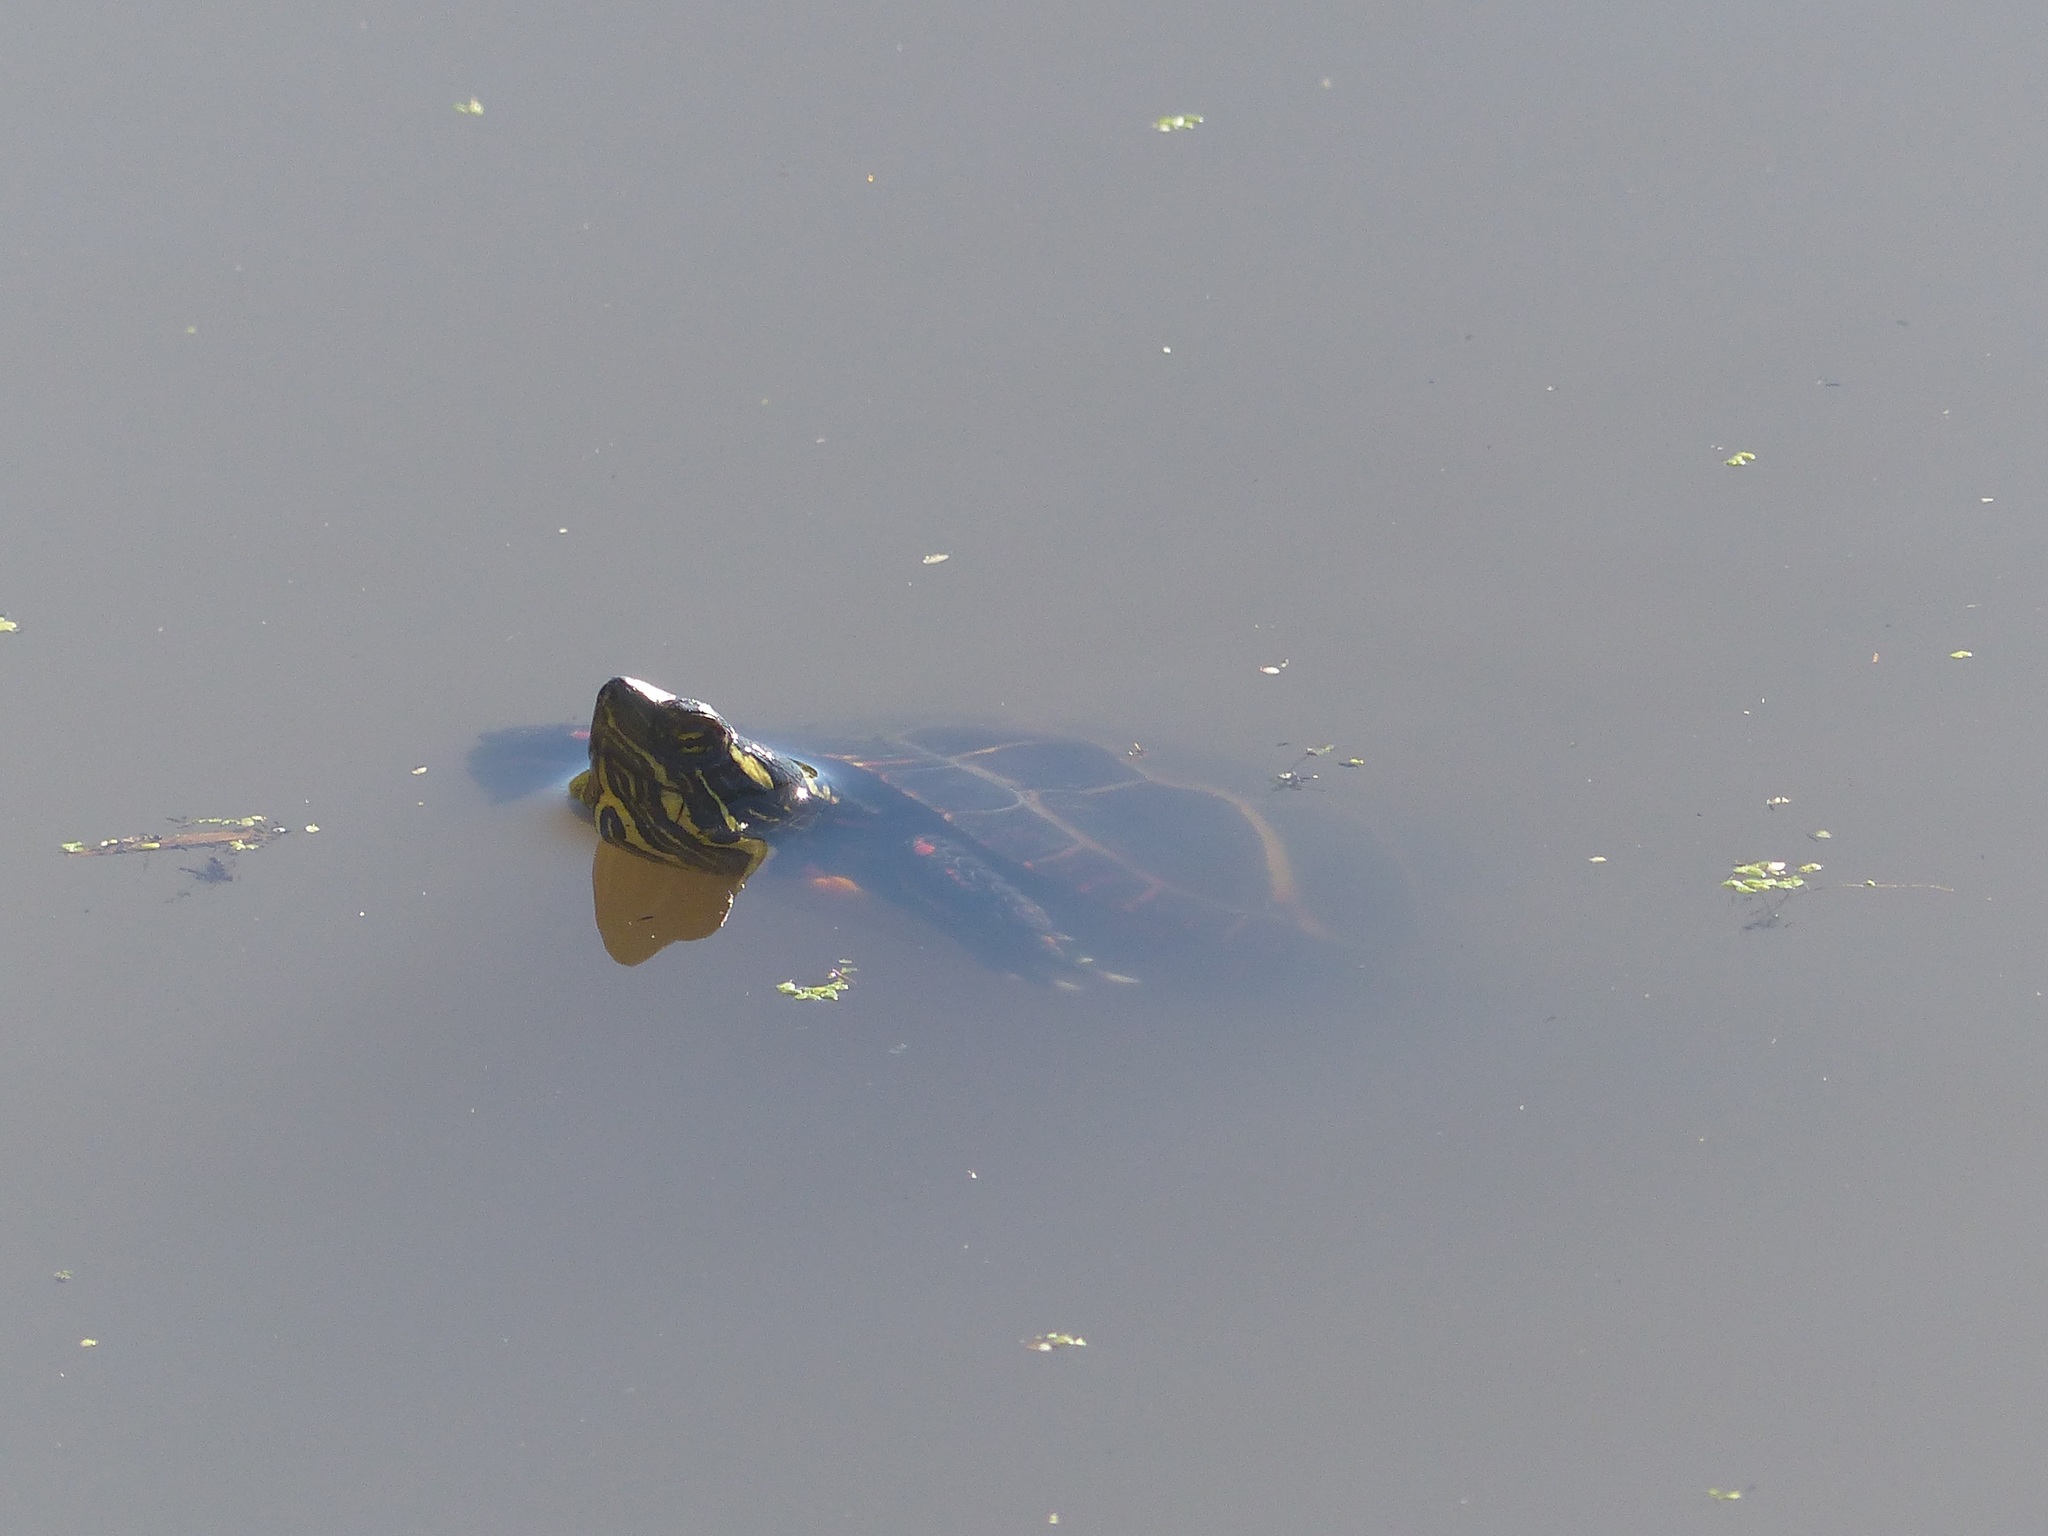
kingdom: Animalia
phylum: Chordata
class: Testudines
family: Emydidae
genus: Chrysemys
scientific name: Chrysemys picta
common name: Painted turtle
